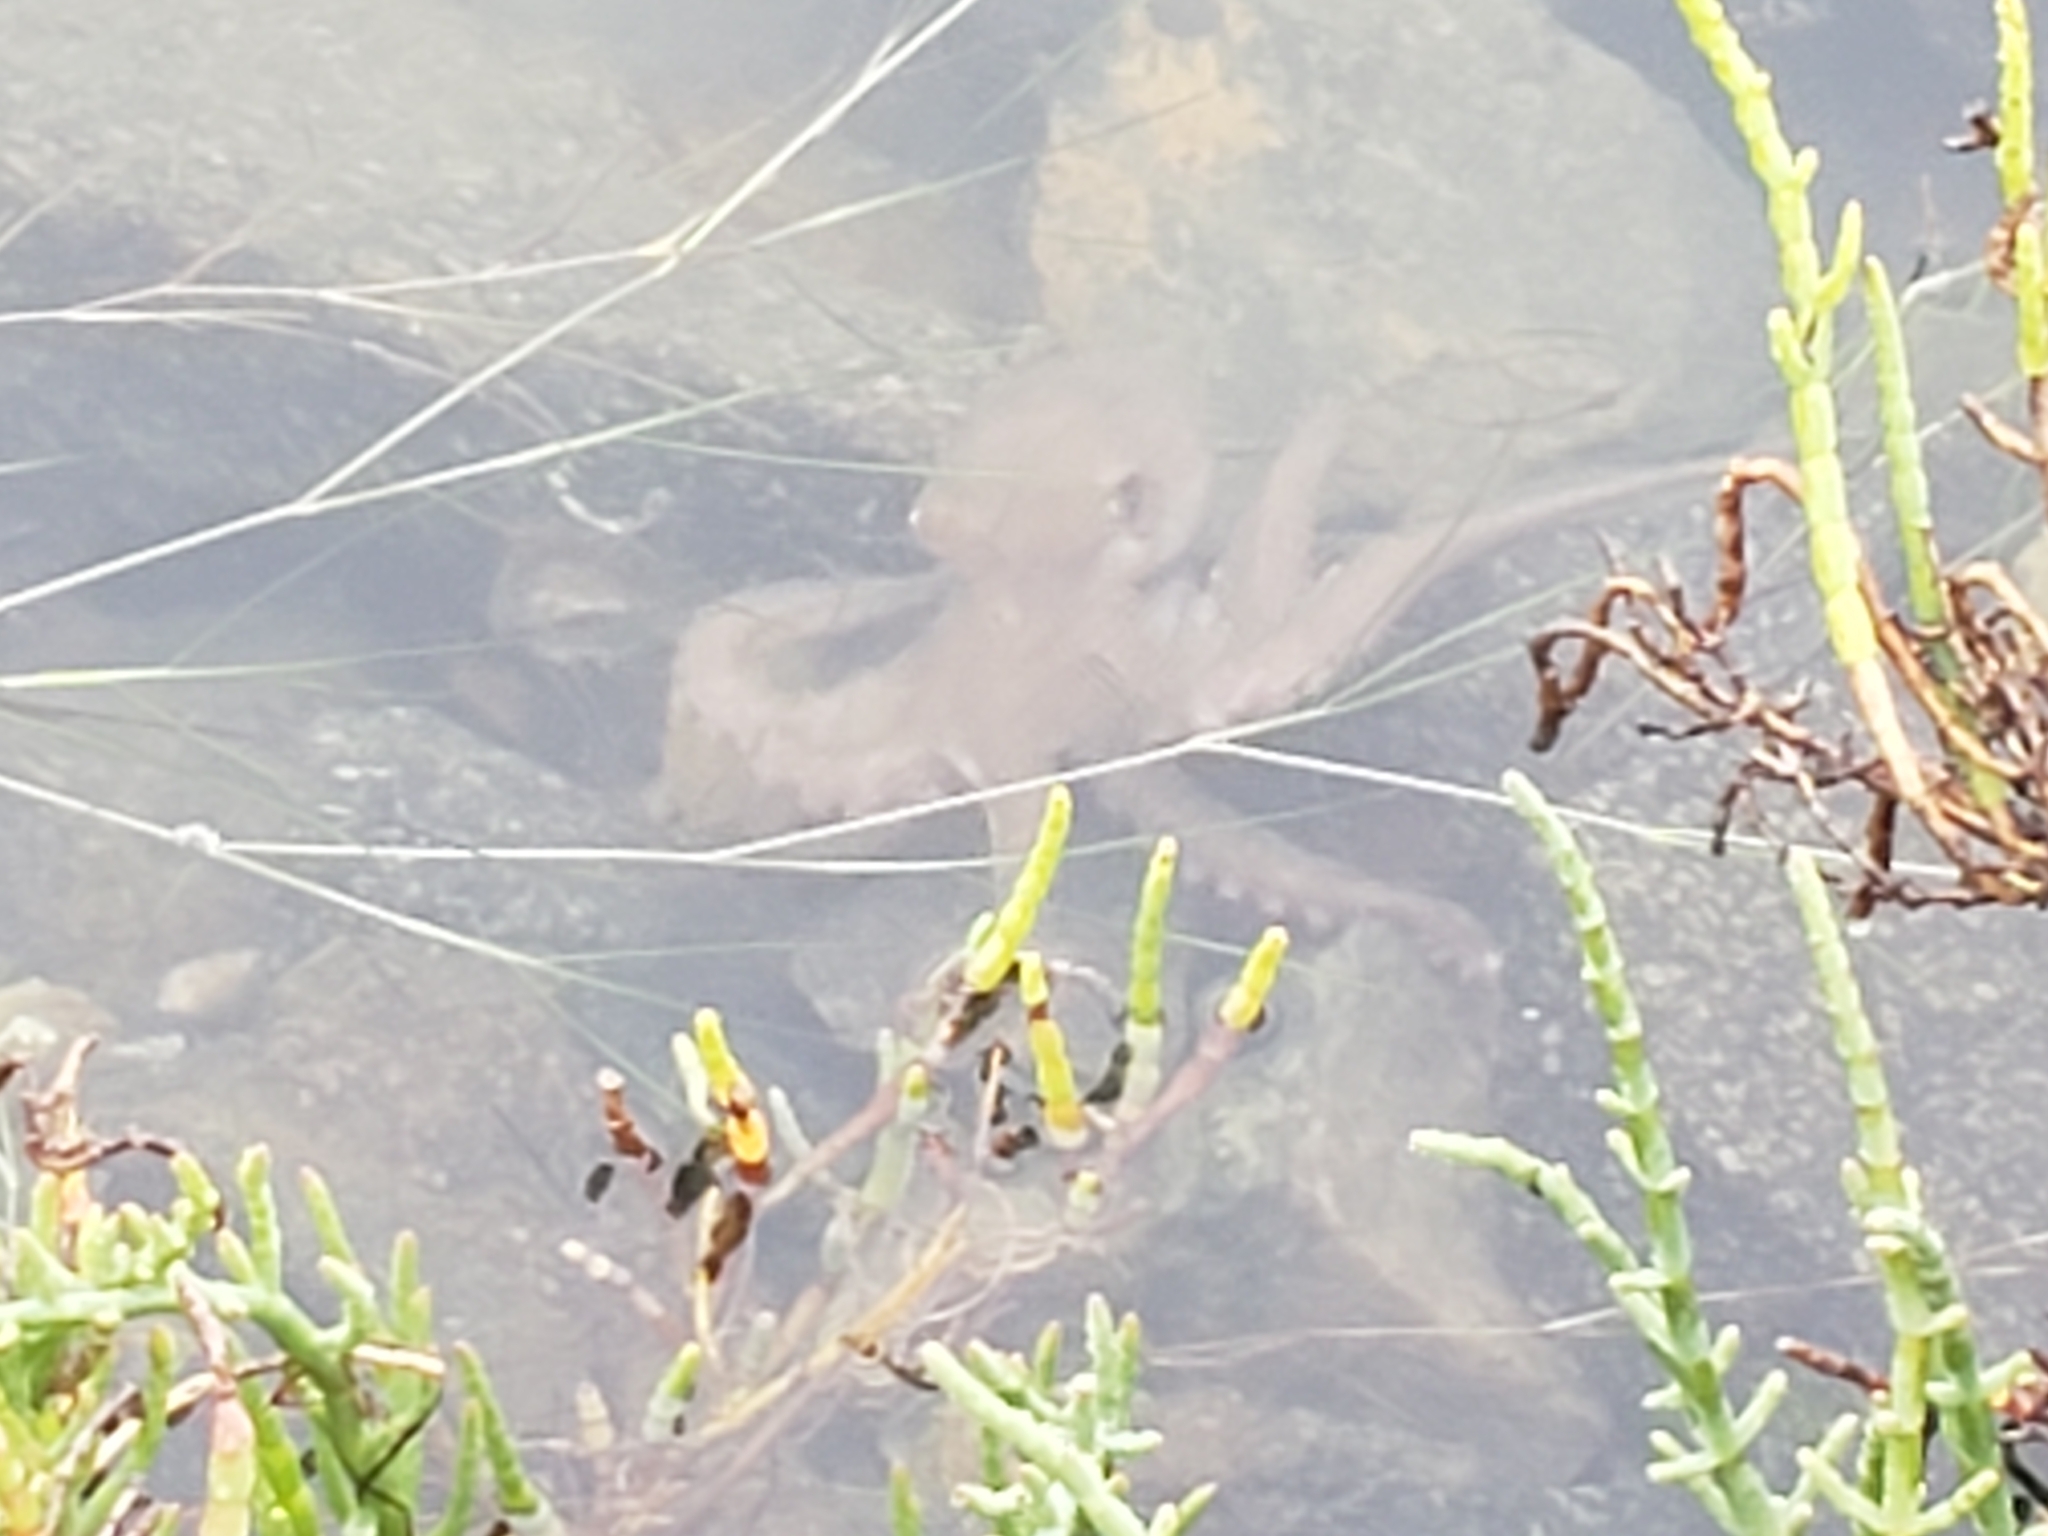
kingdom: Animalia
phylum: Mollusca
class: Cephalopoda
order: Octopoda
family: Octopodidae
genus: Octopus
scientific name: Octopus bimaculoides
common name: California two-spot octopus
